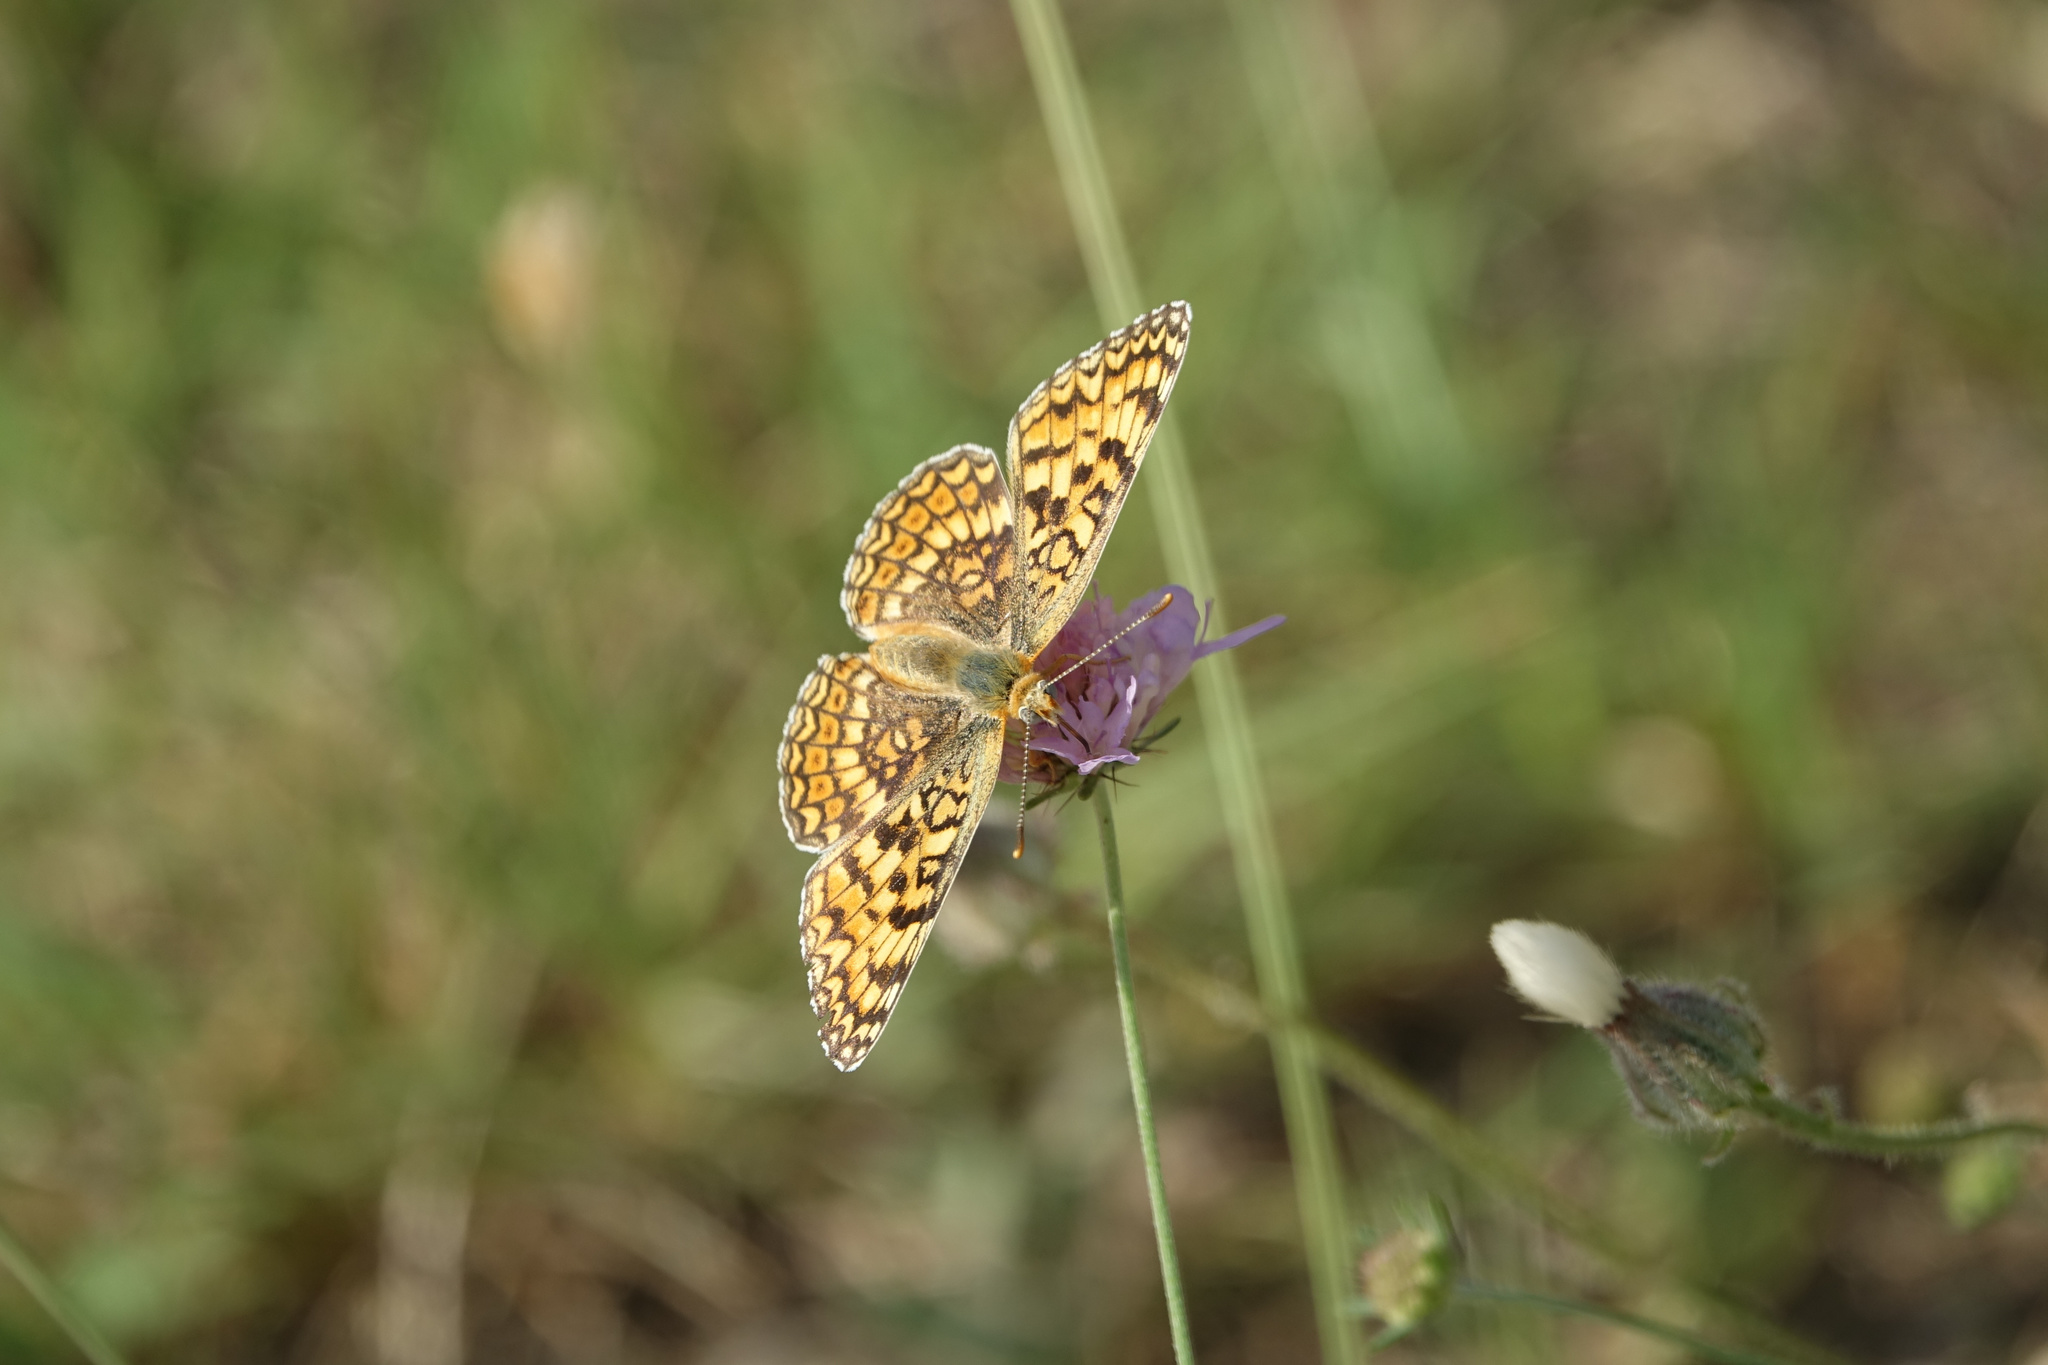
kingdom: Animalia
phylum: Arthropoda
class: Insecta
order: Lepidoptera
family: Nymphalidae
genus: Melitaea
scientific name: Melitaea phoebe
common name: Knapweed fritillary
